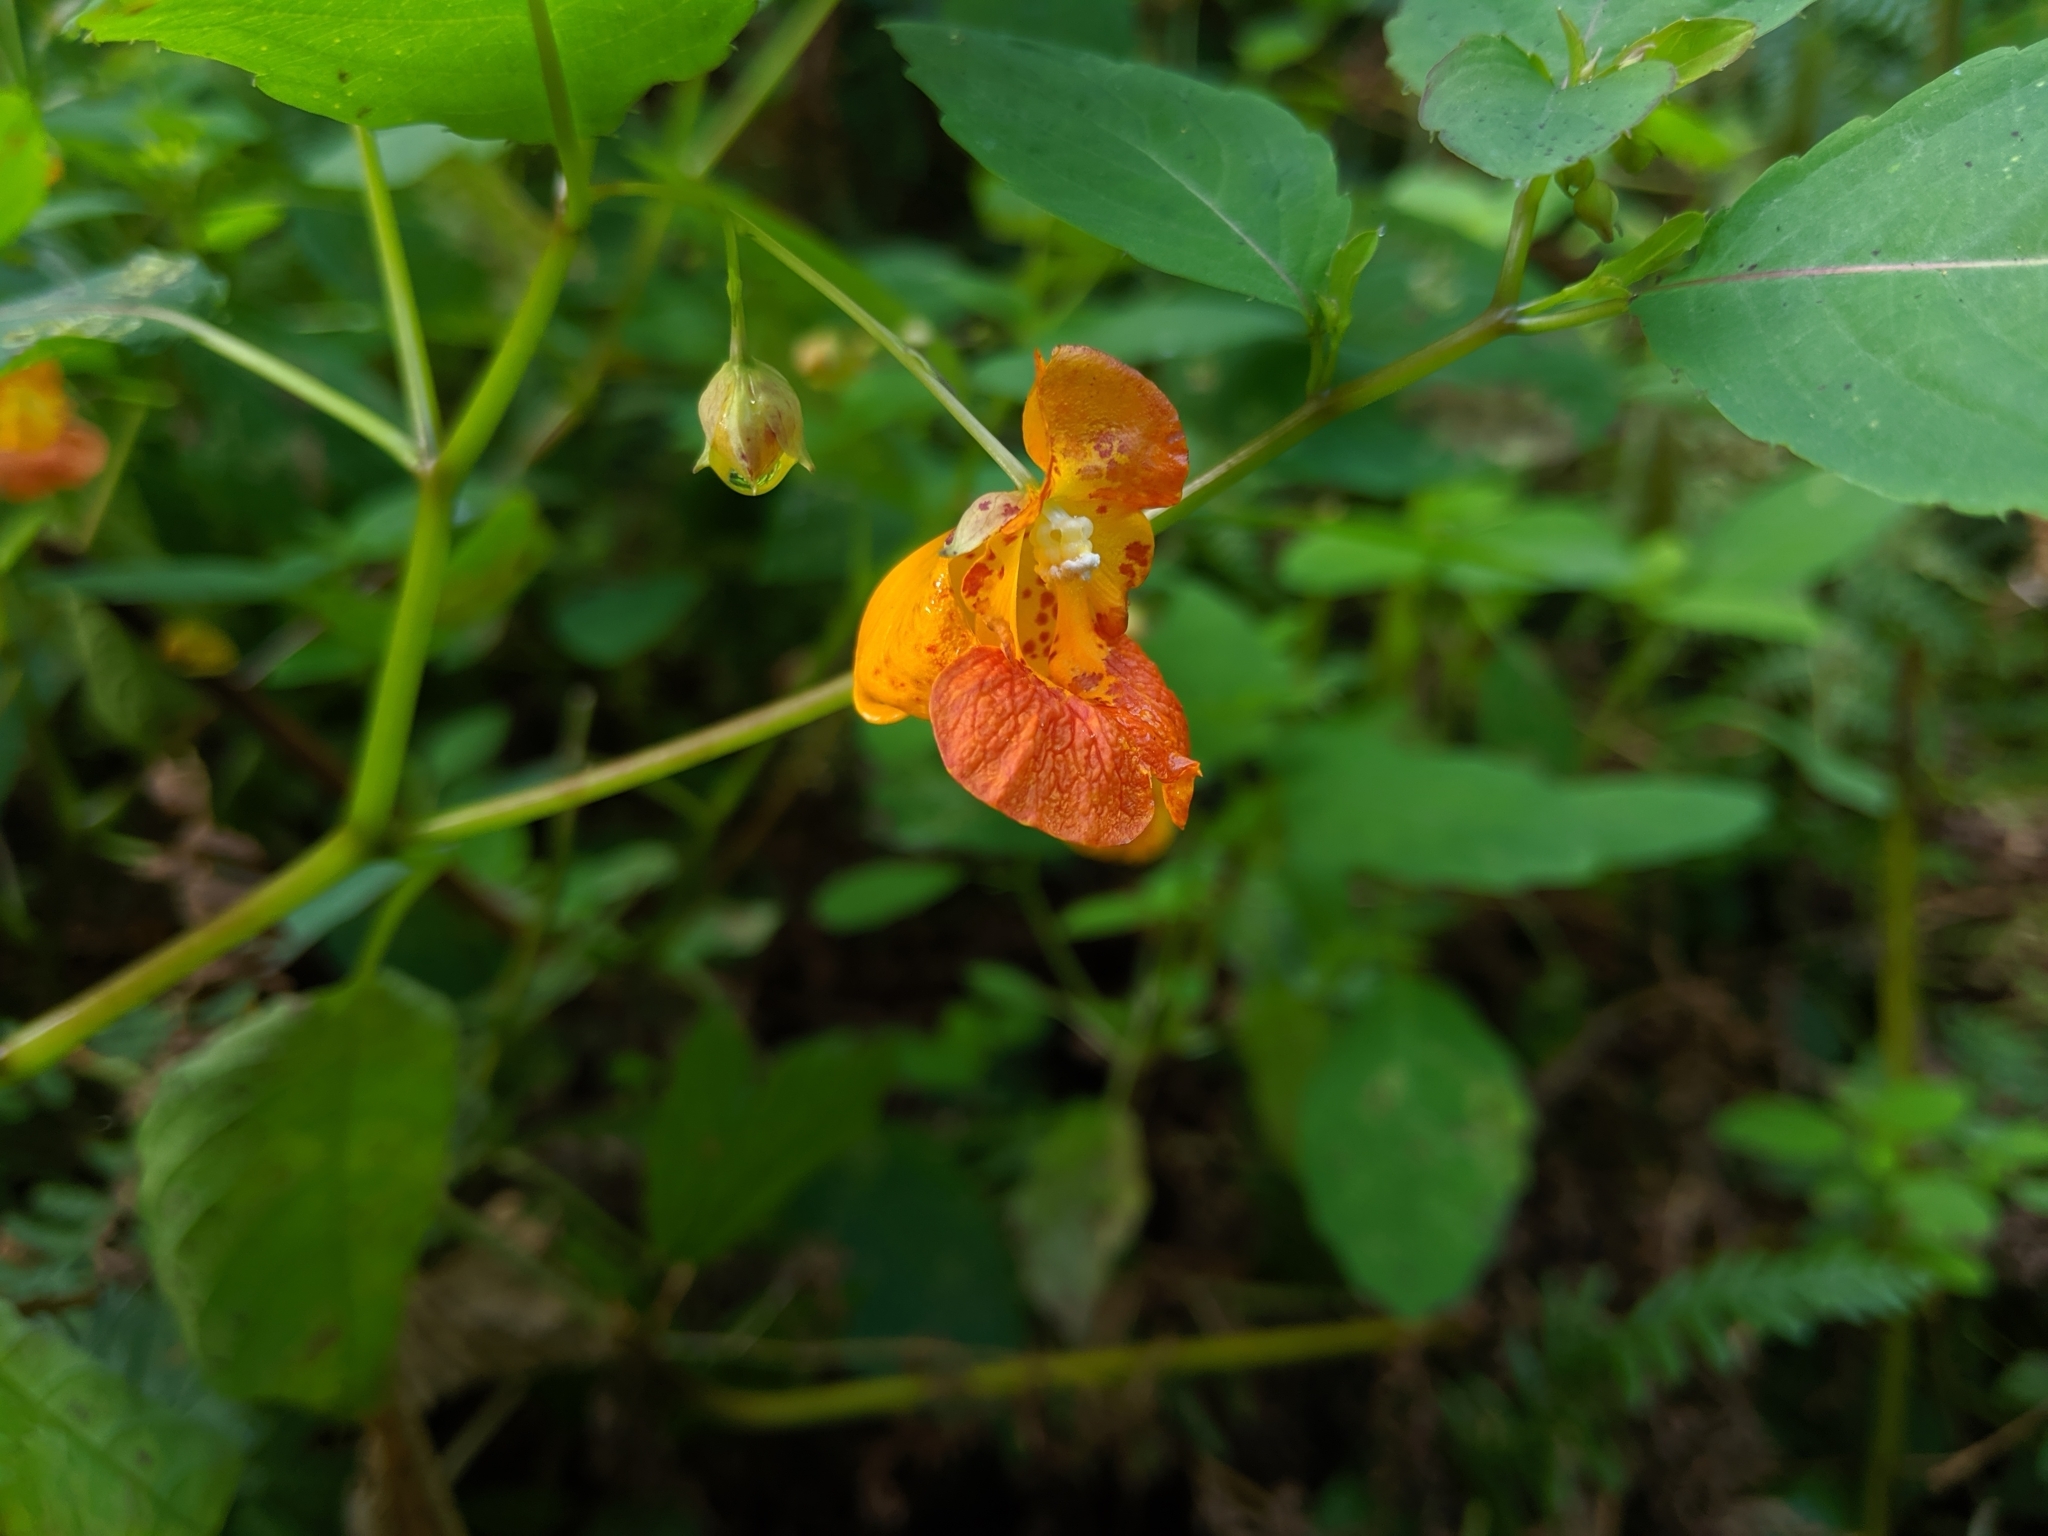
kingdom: Plantae
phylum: Tracheophyta
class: Magnoliopsida
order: Ericales
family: Balsaminaceae
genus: Impatiens
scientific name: Impatiens capensis
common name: Orange balsam
